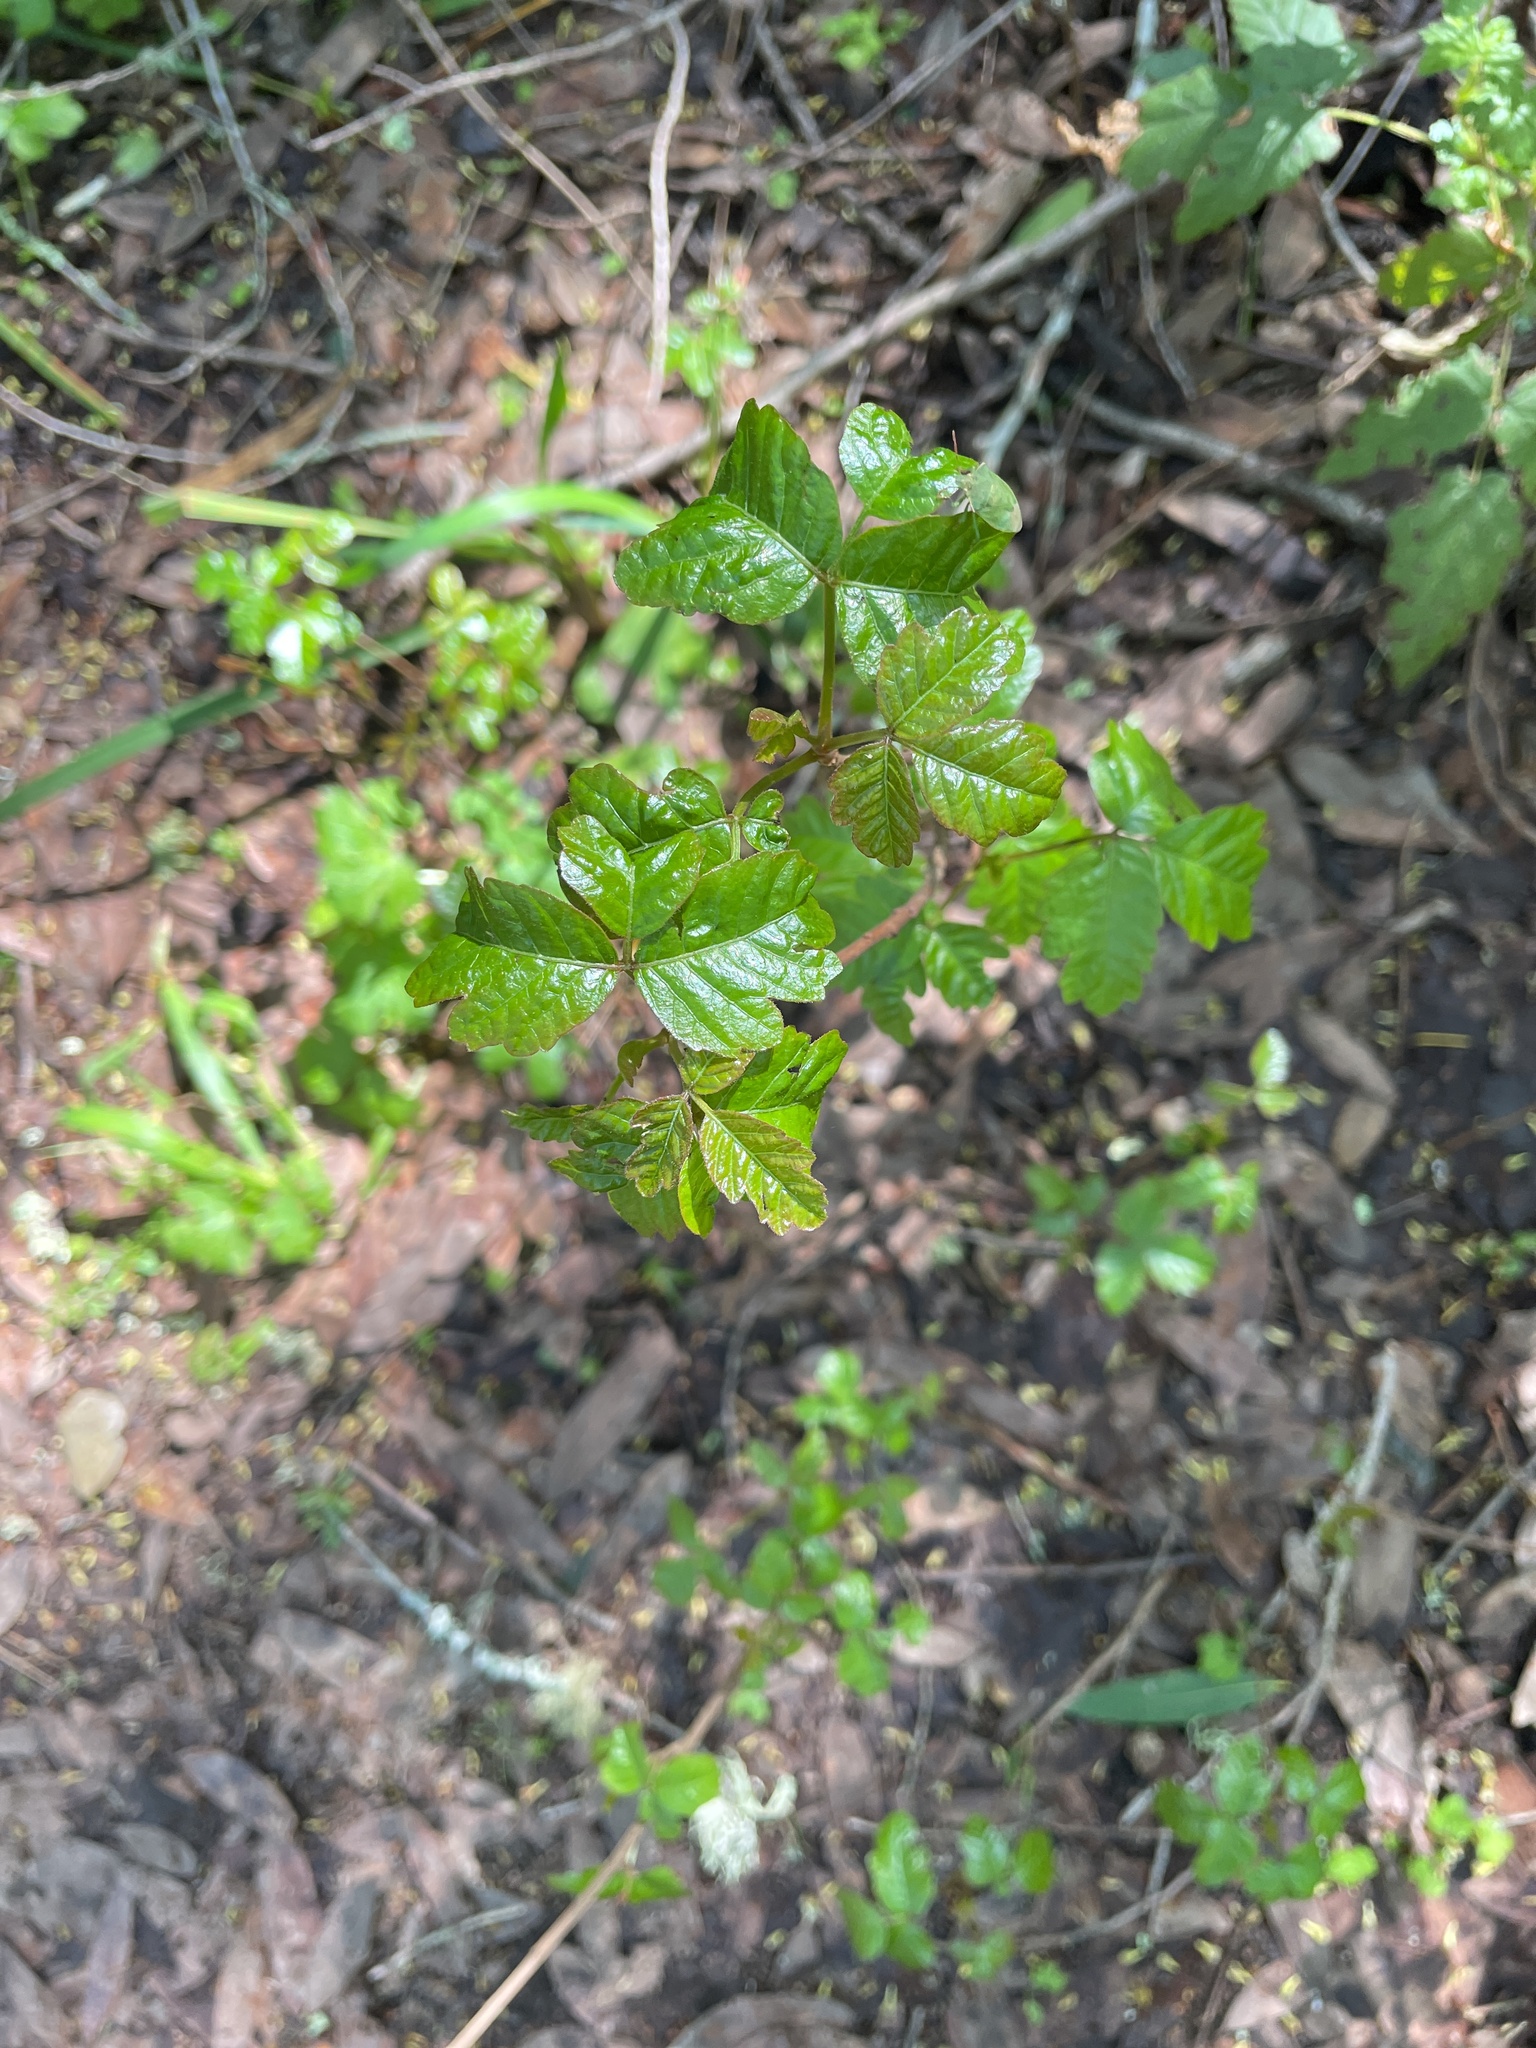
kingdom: Plantae
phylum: Tracheophyta
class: Magnoliopsida
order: Sapindales
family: Anacardiaceae
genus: Toxicodendron
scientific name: Toxicodendron diversilobum
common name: Pacific poison-oak
